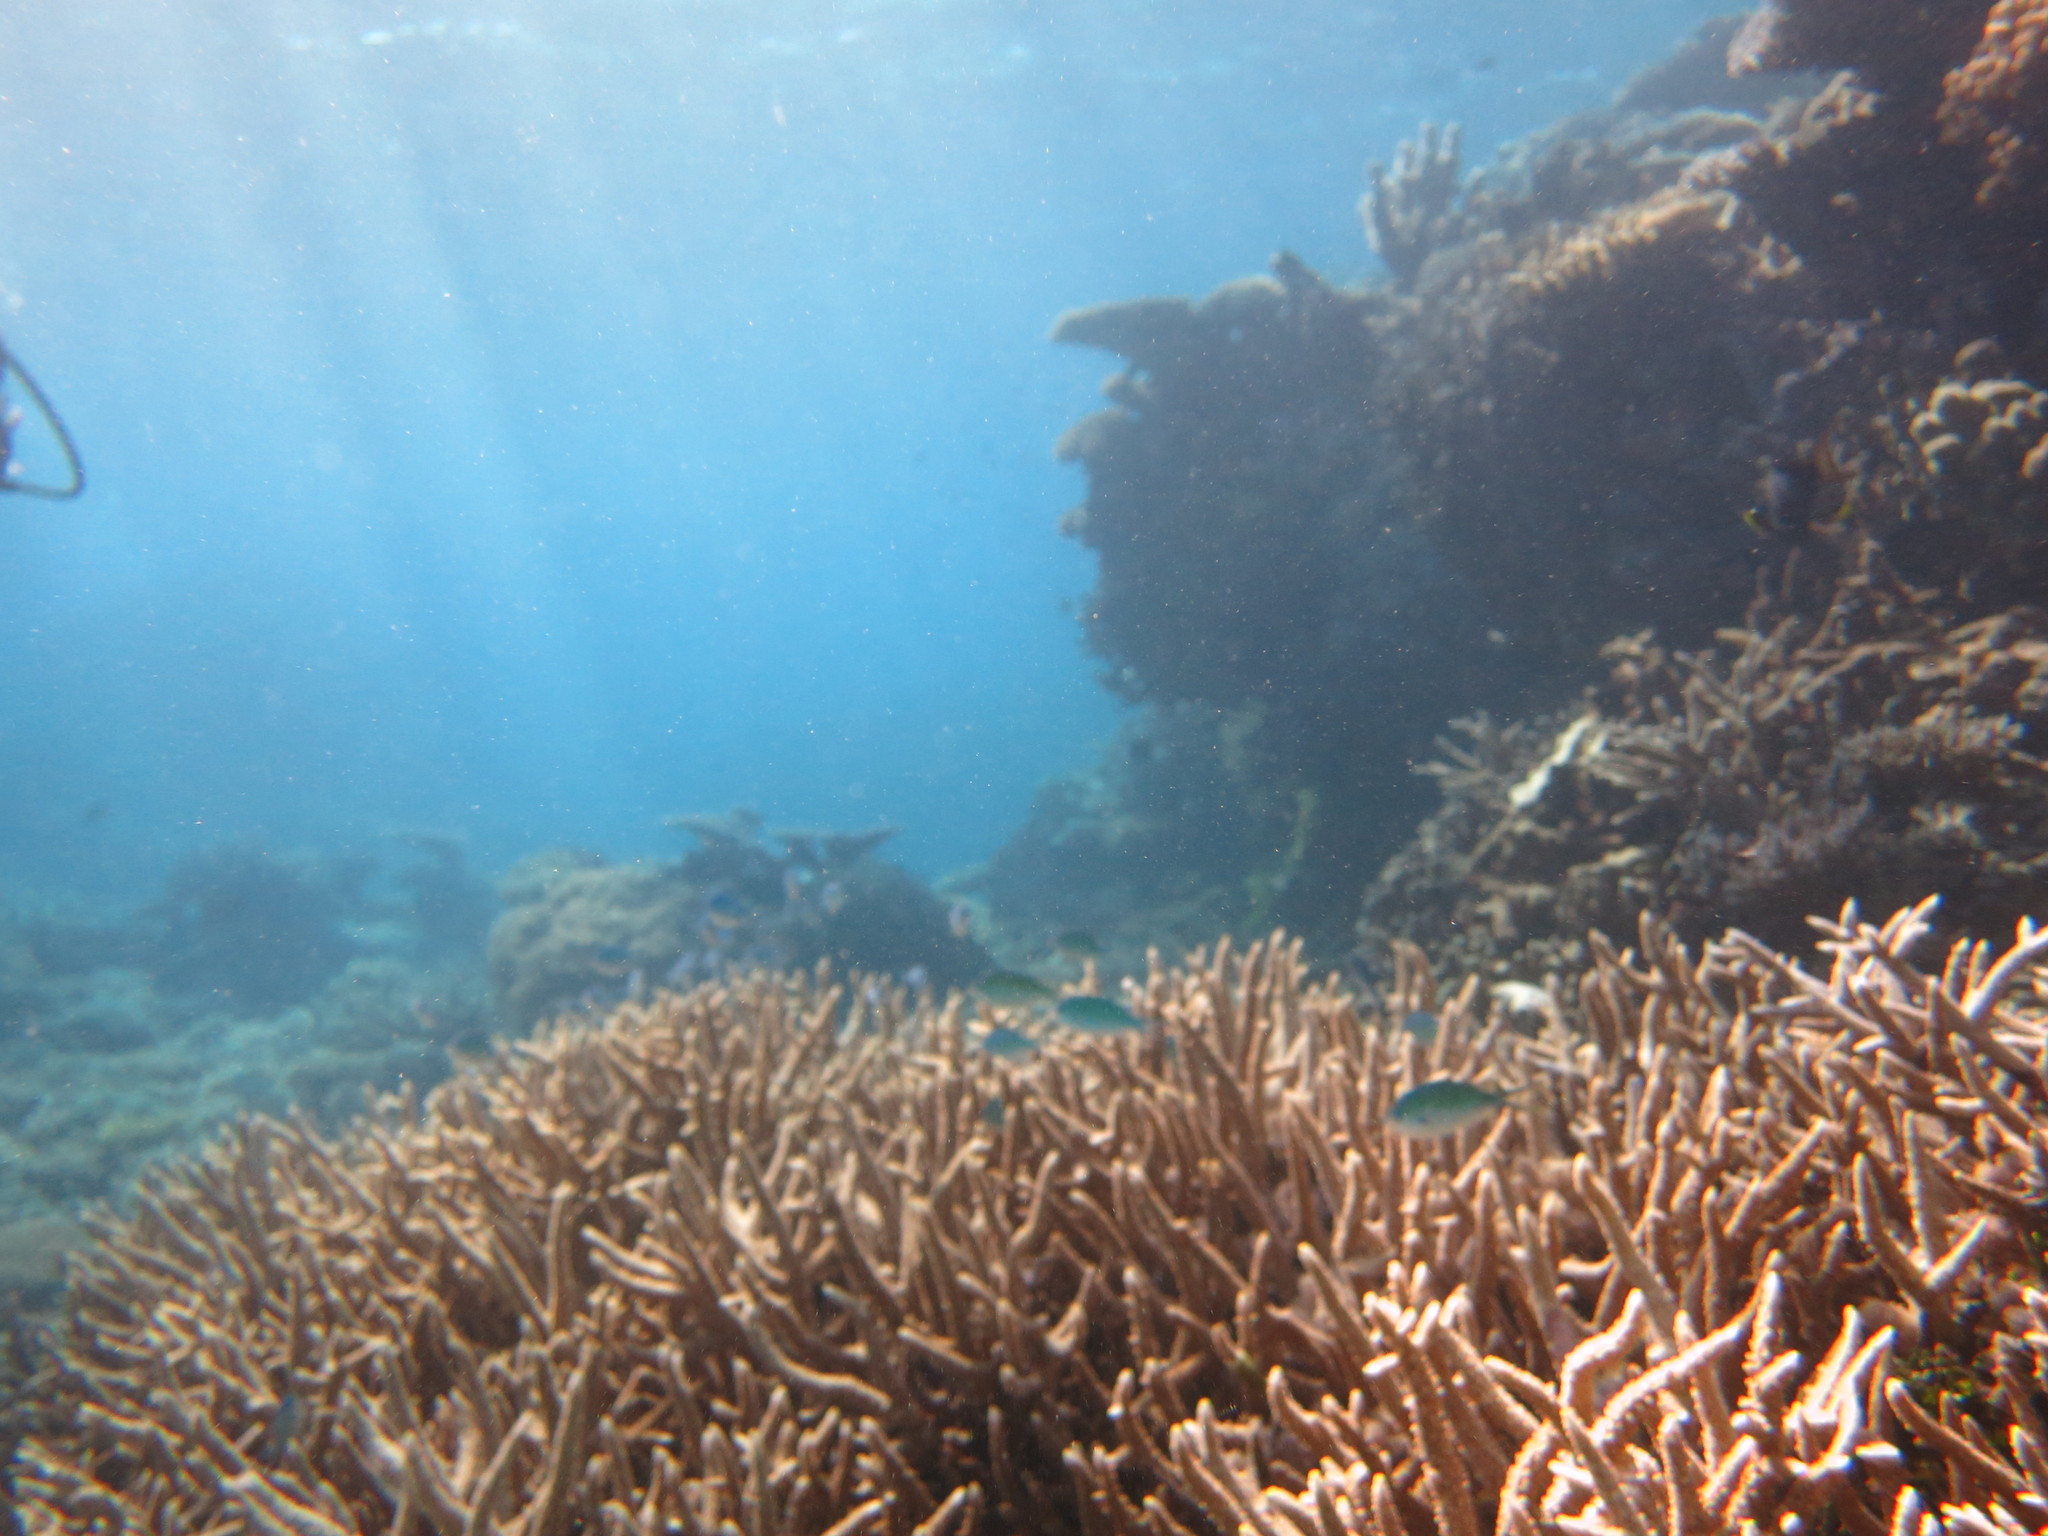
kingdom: Animalia
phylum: Chordata
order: Perciformes
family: Pomacentridae
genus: Chromis
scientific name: Chromis atripectoralis
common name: Black-axil chromis
